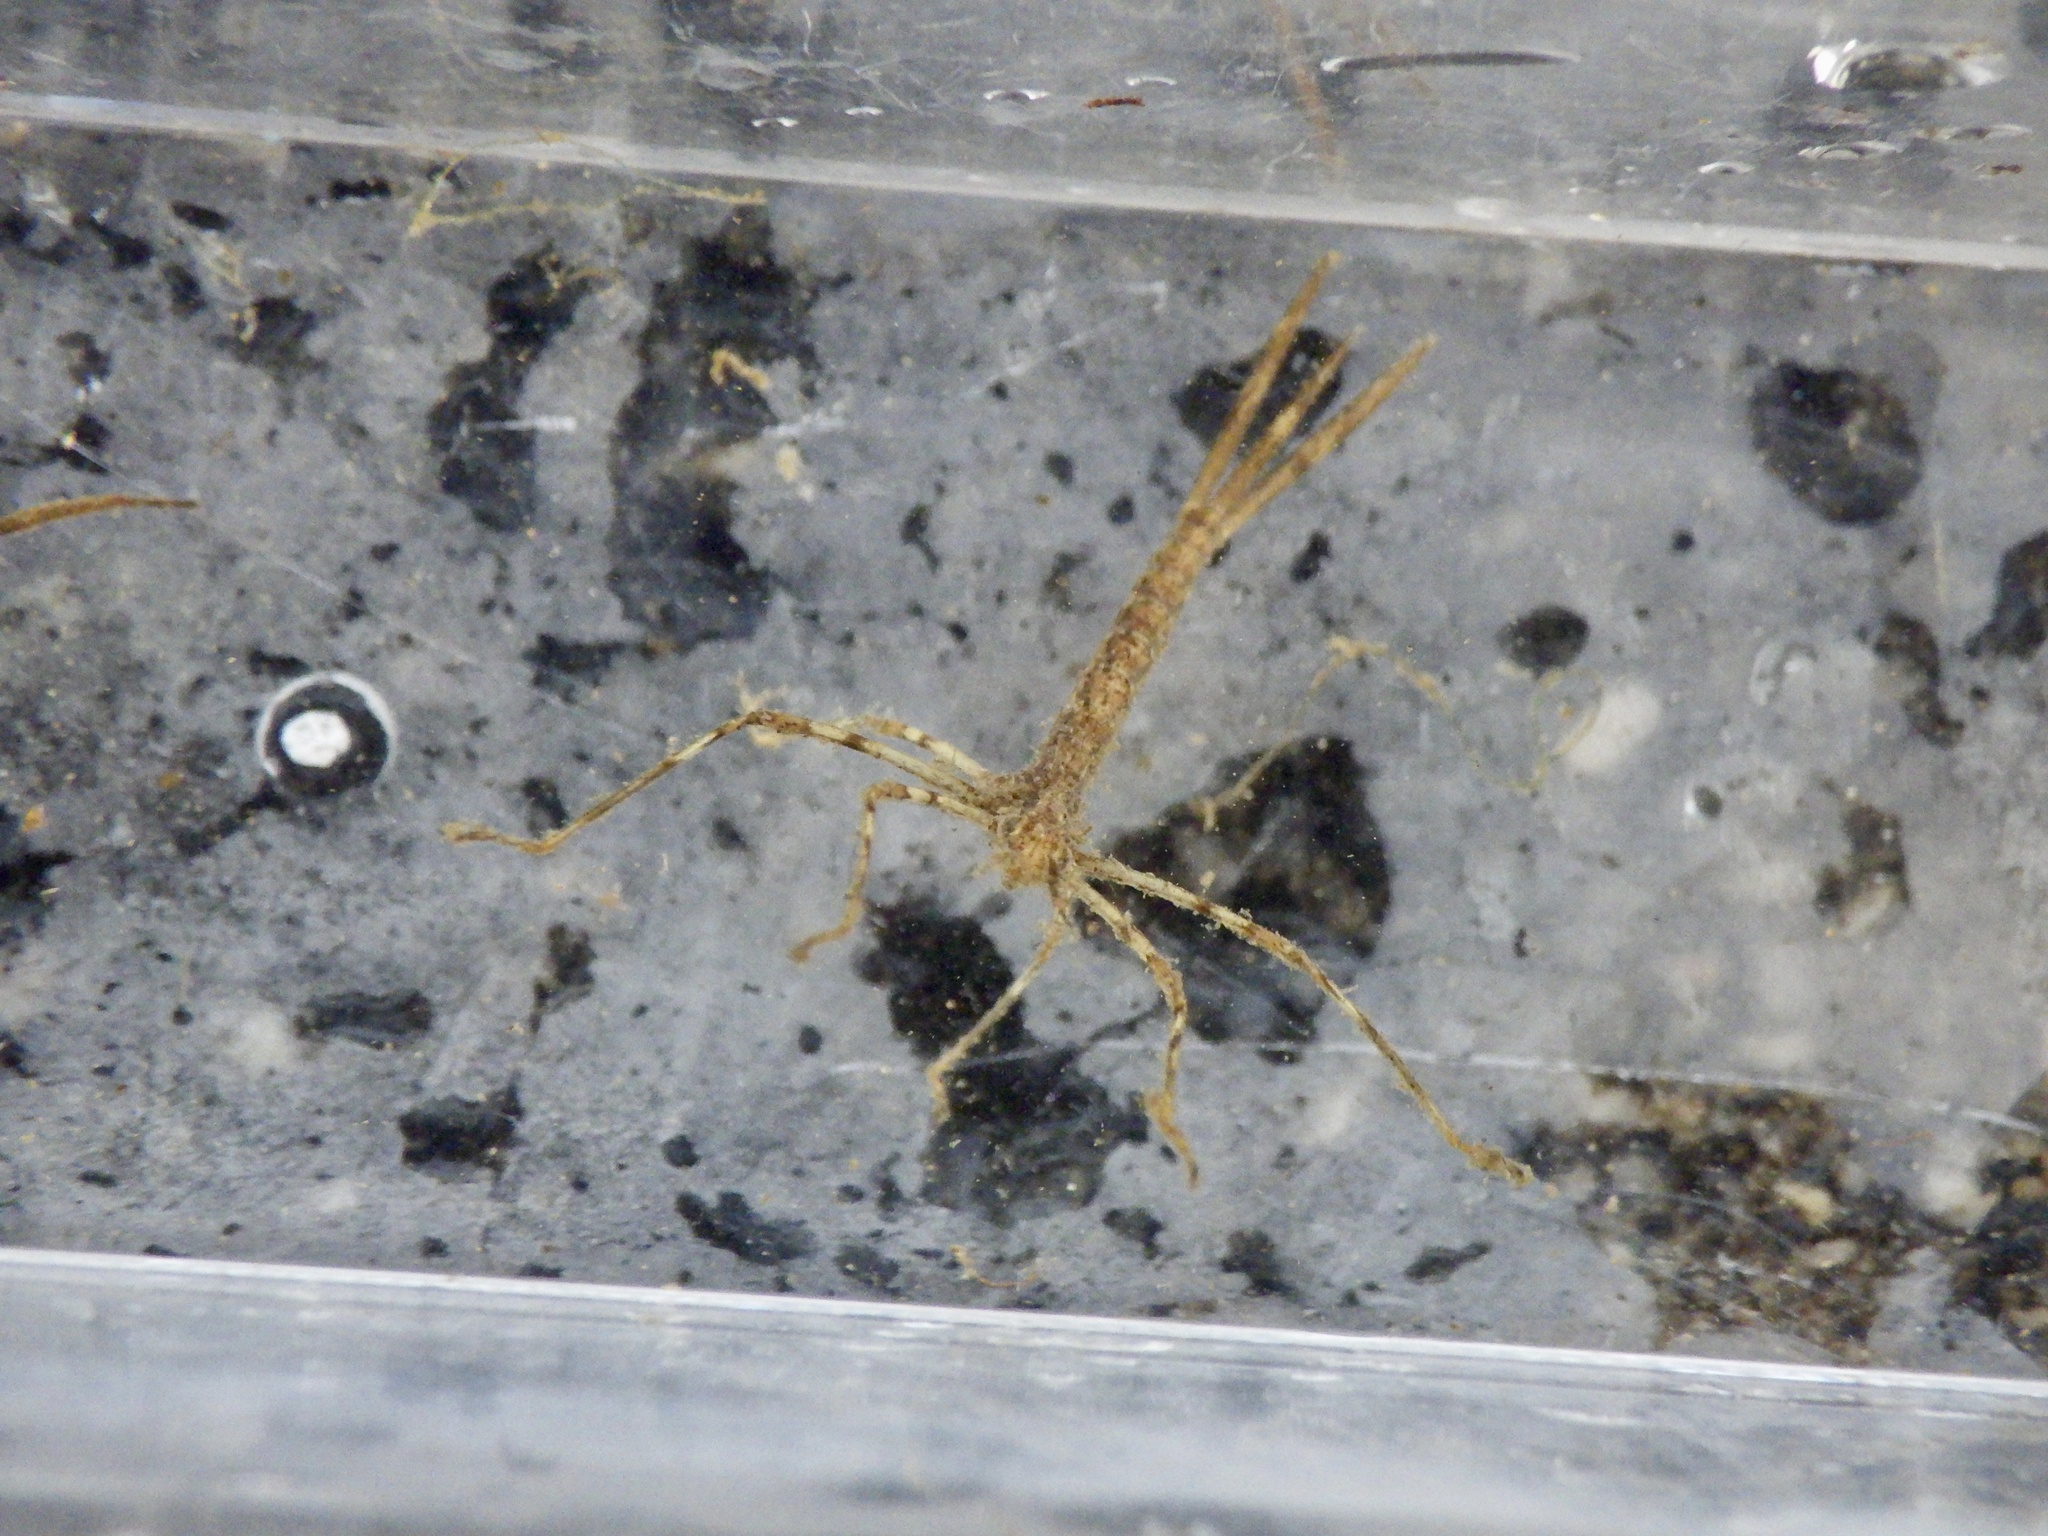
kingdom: Animalia
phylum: Arthropoda
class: Insecta
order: Odonata
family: Calopterygidae
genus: Atrocalopteryx
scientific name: Atrocalopteryx atrata
